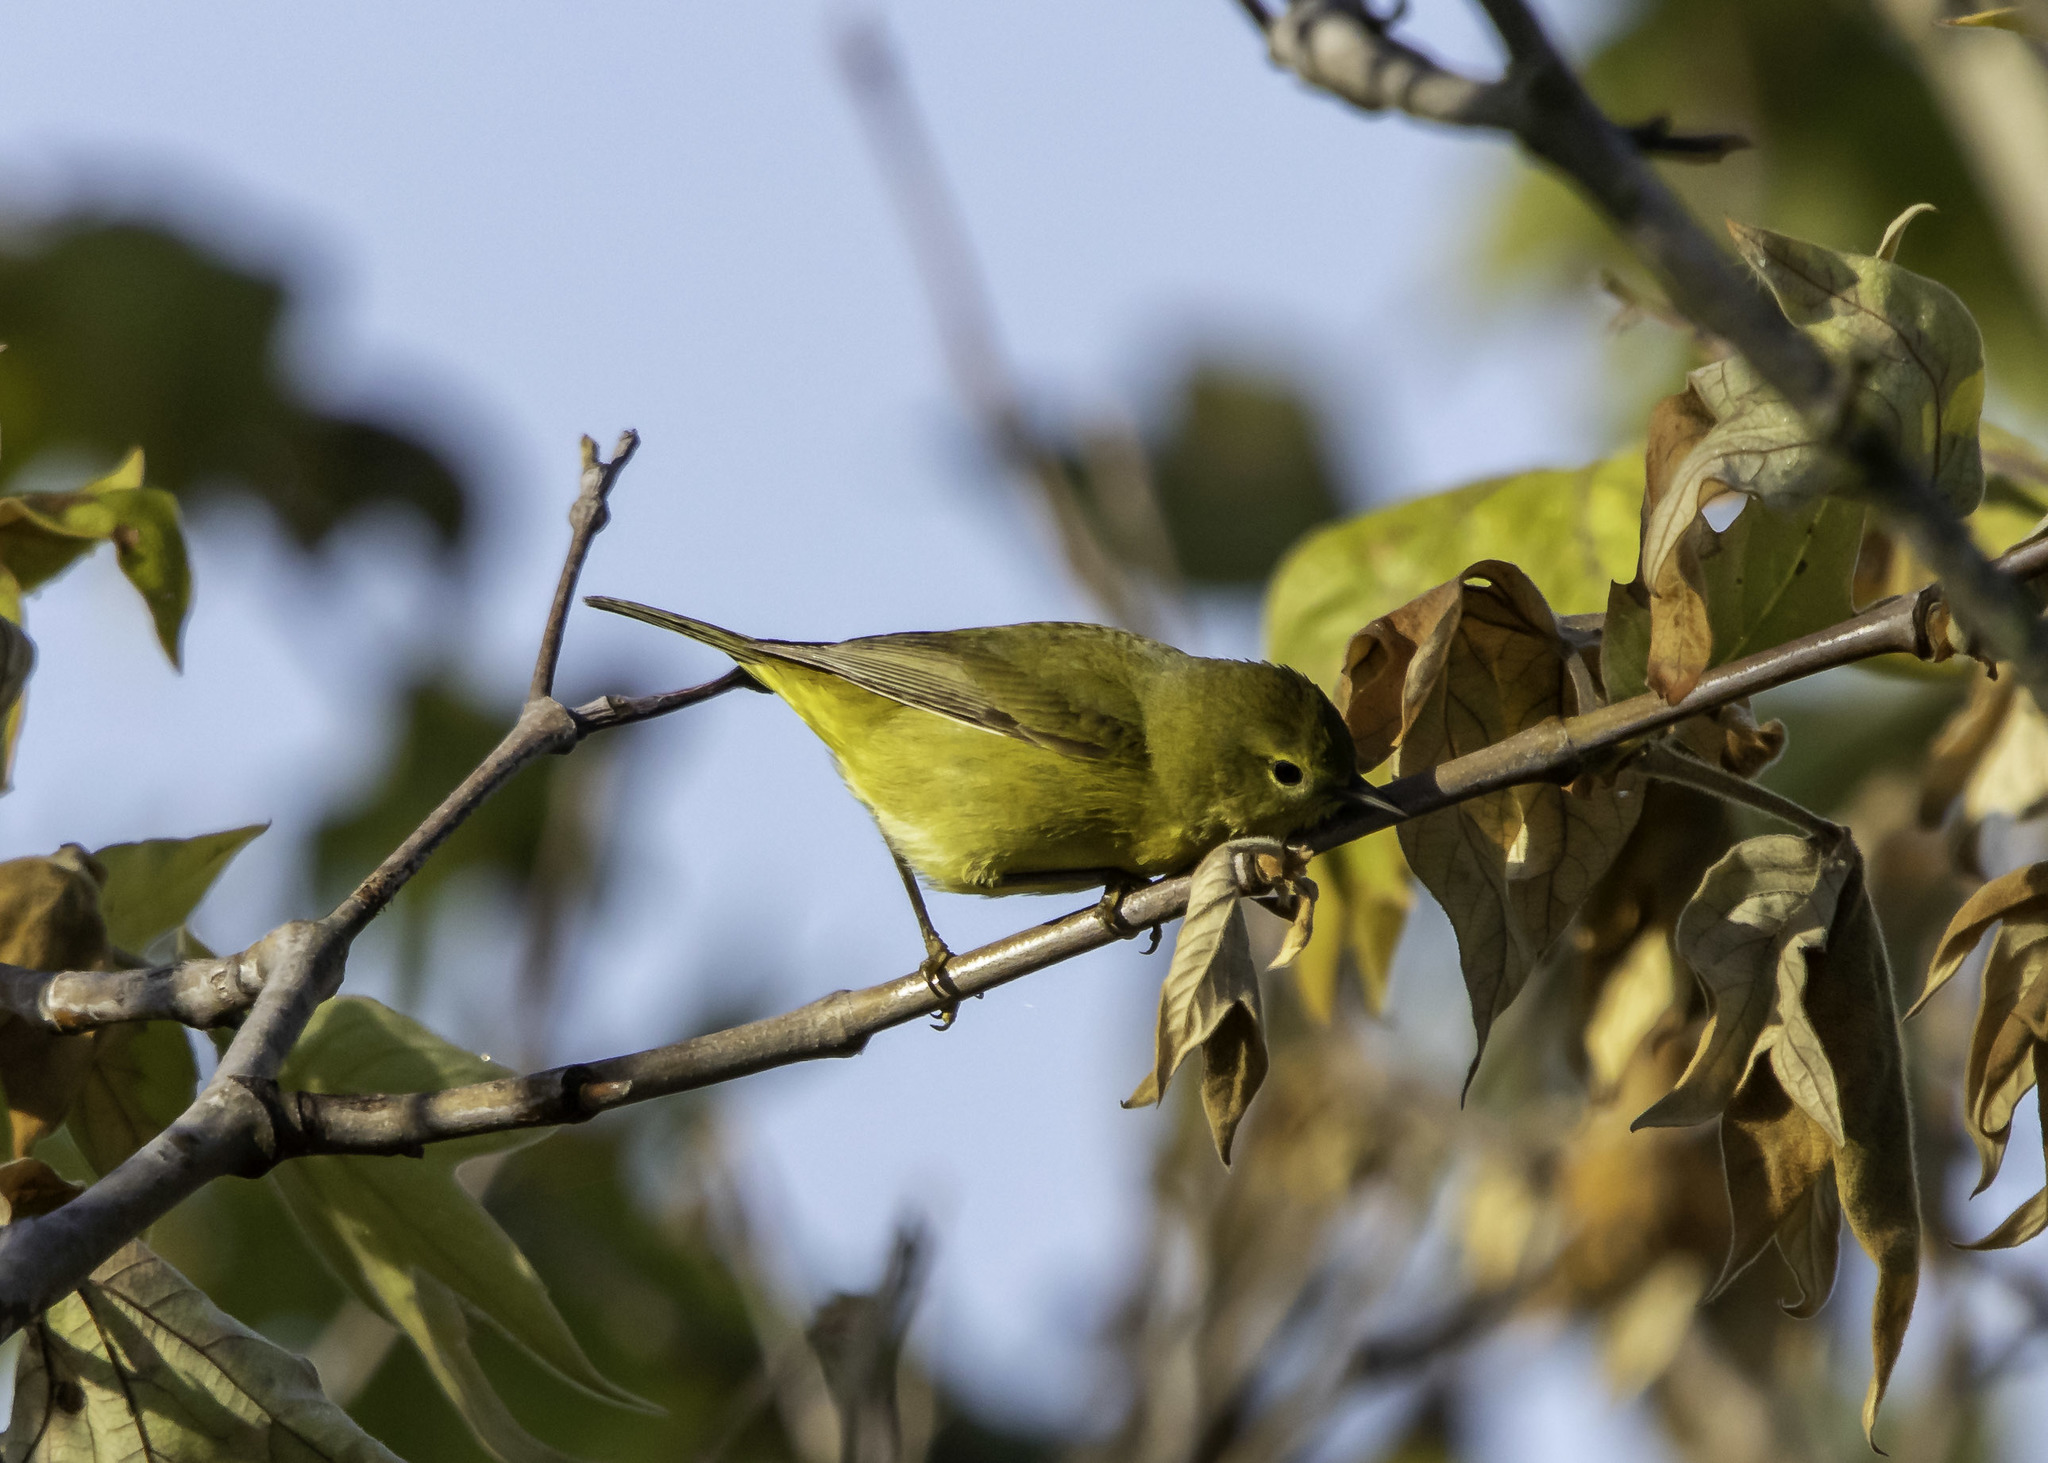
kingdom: Animalia
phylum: Chordata
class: Aves
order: Passeriformes
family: Parulidae
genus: Leiothlypis
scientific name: Leiothlypis celata
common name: Orange-crowned warbler
